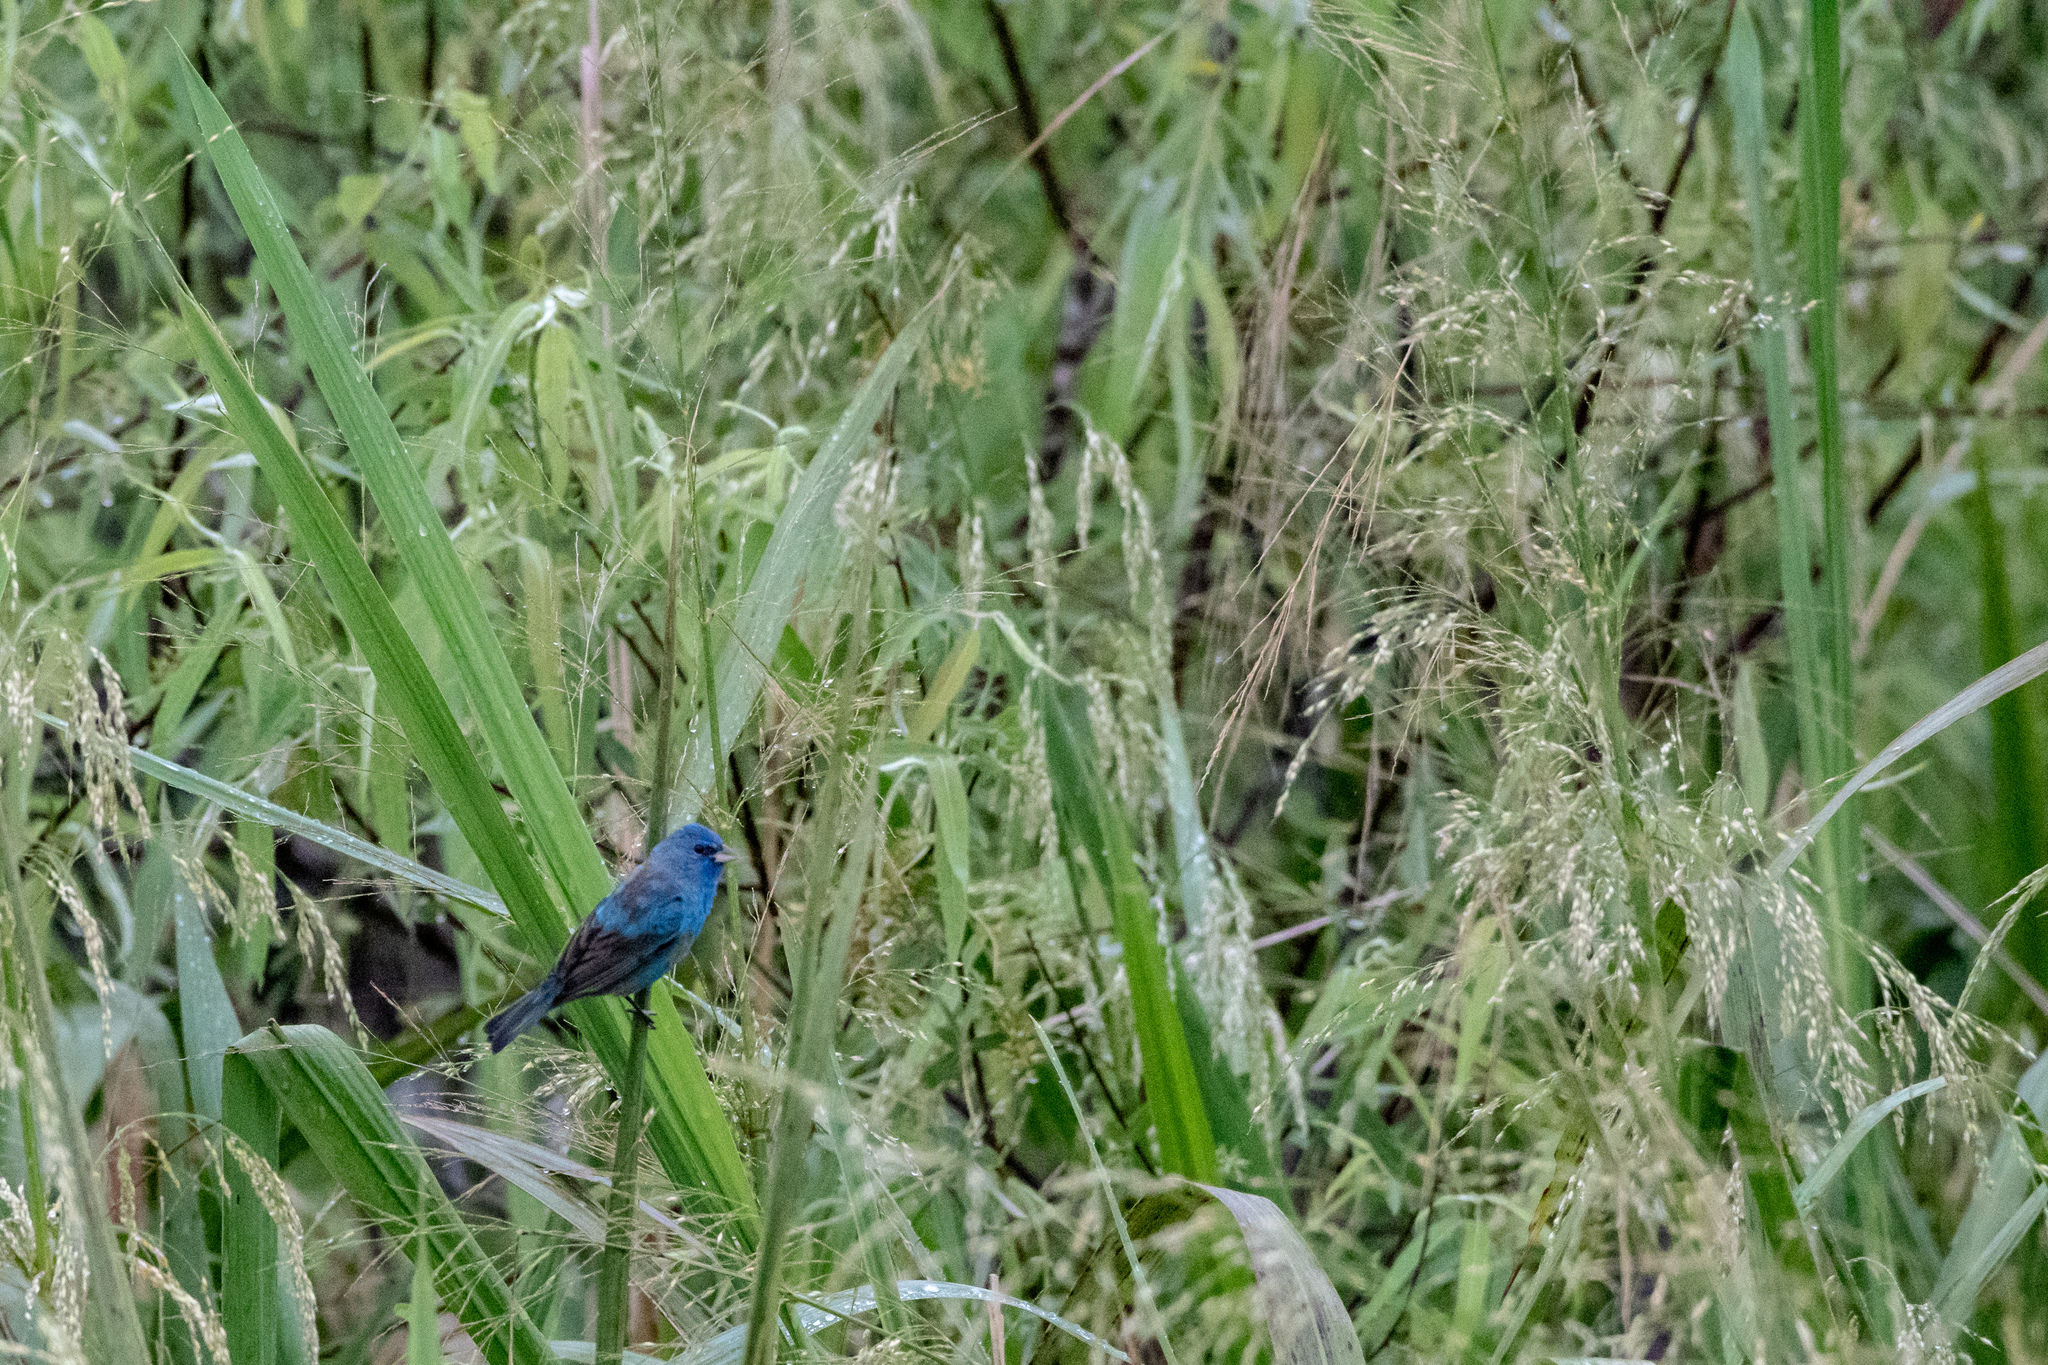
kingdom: Animalia
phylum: Chordata
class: Aves
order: Passeriformes
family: Cardinalidae
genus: Passerina
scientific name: Passerina cyanea
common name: Indigo bunting
